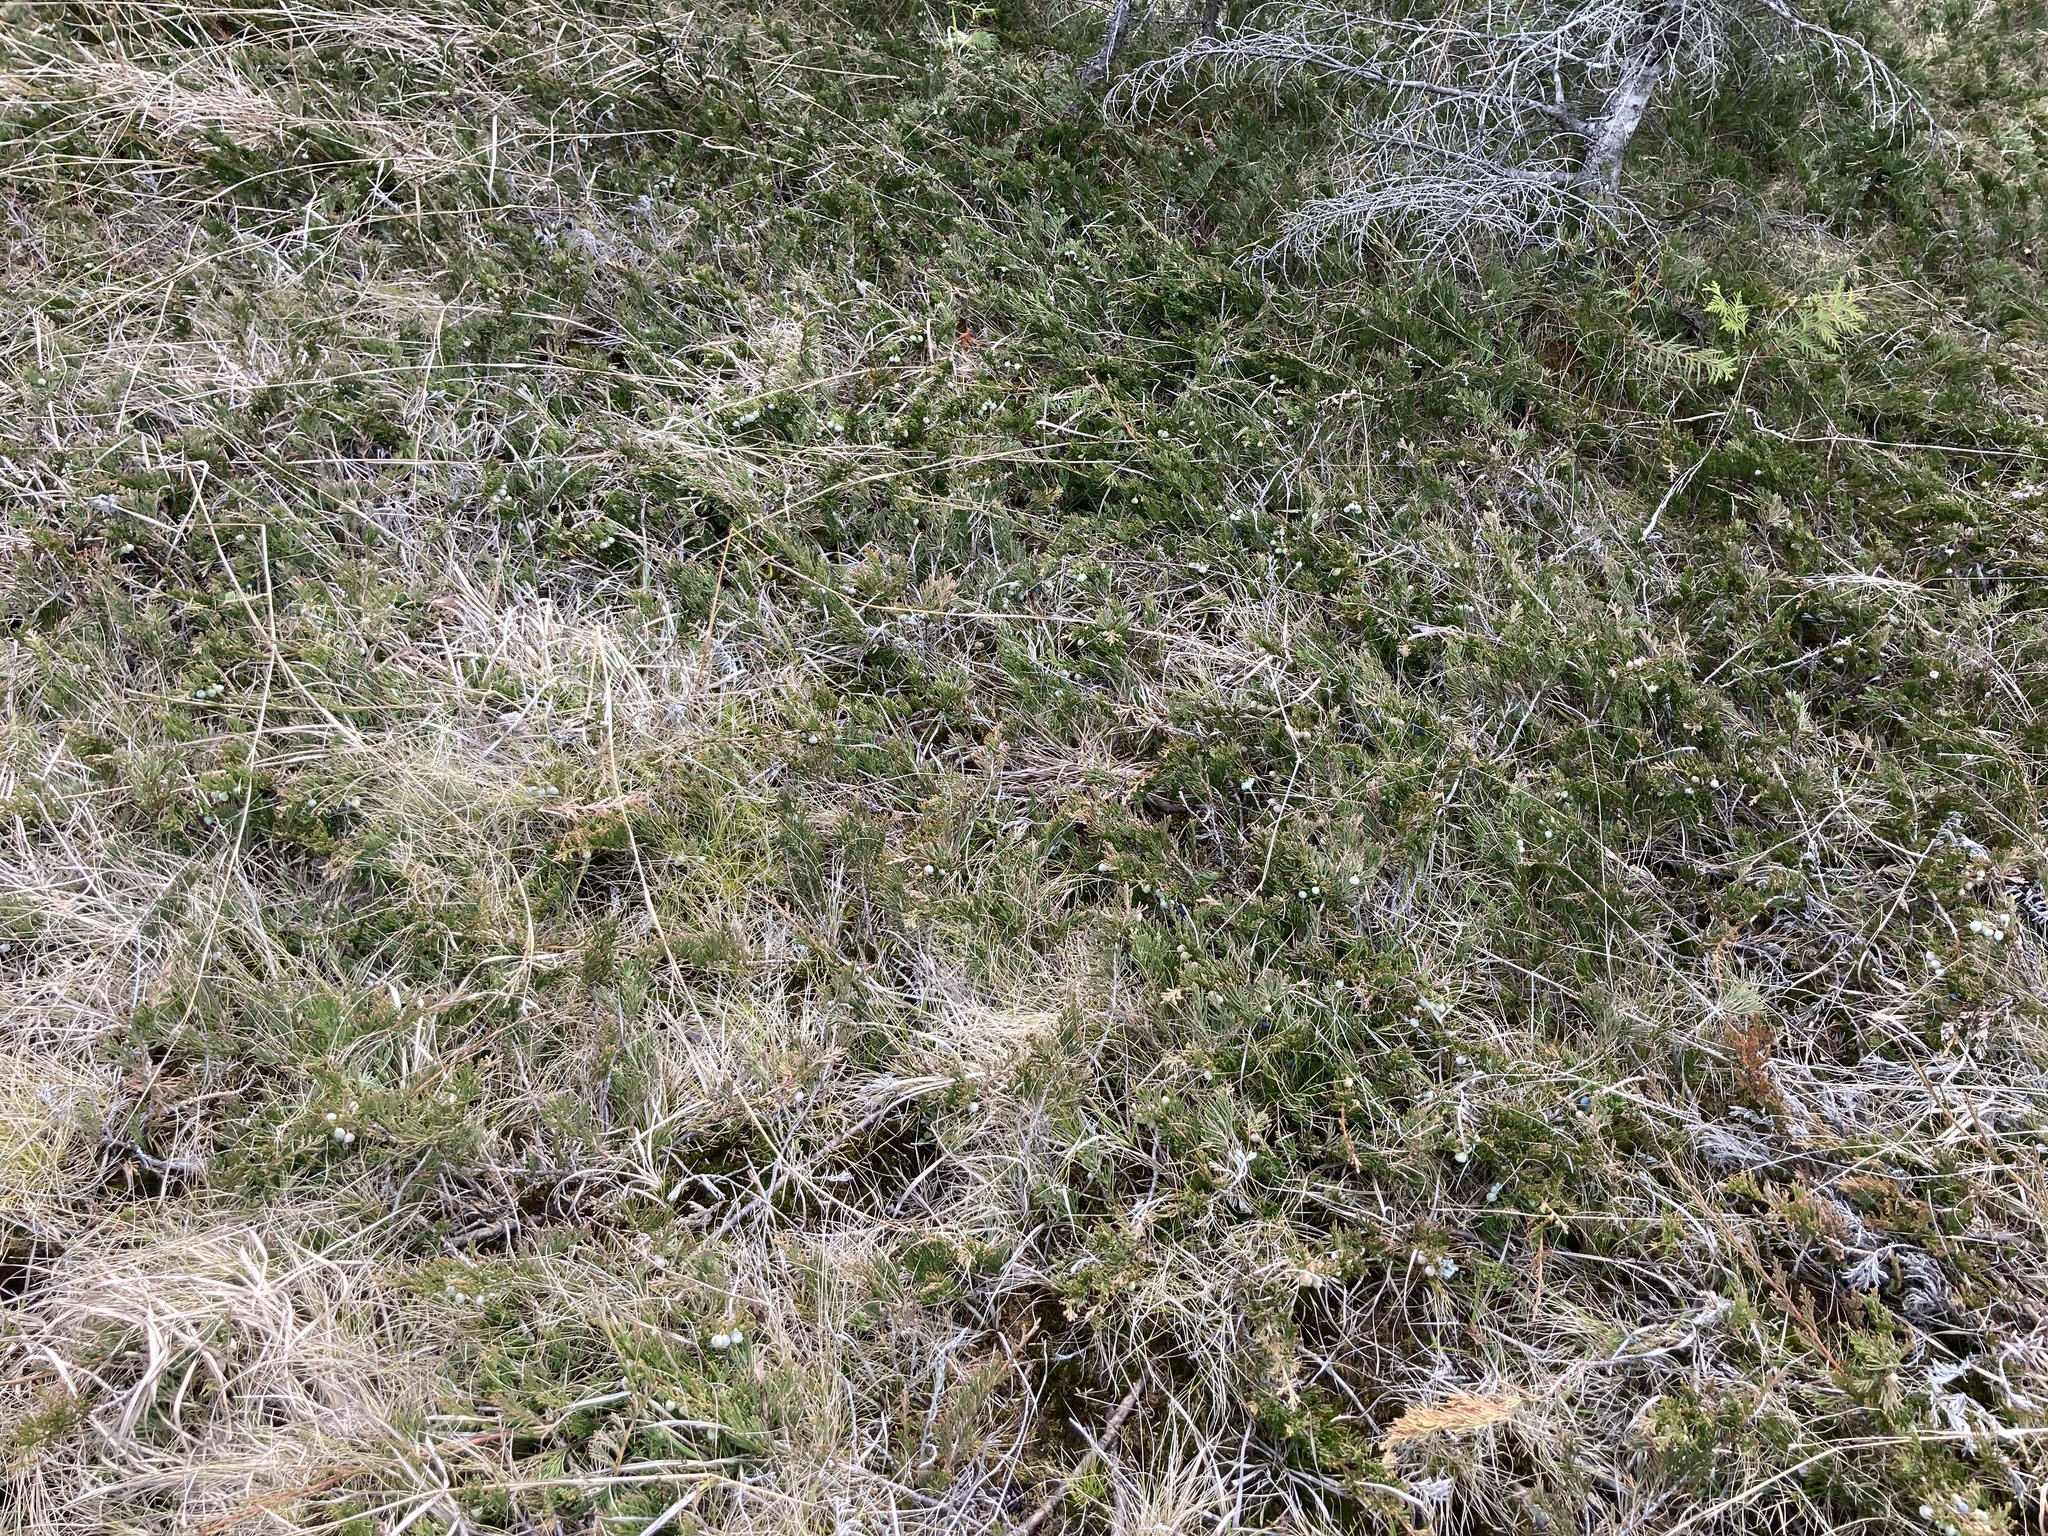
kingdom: Plantae
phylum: Tracheophyta
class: Pinopsida
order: Pinales
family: Cupressaceae
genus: Juniperus
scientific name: Juniperus horizontalis
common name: Creeping juniper
